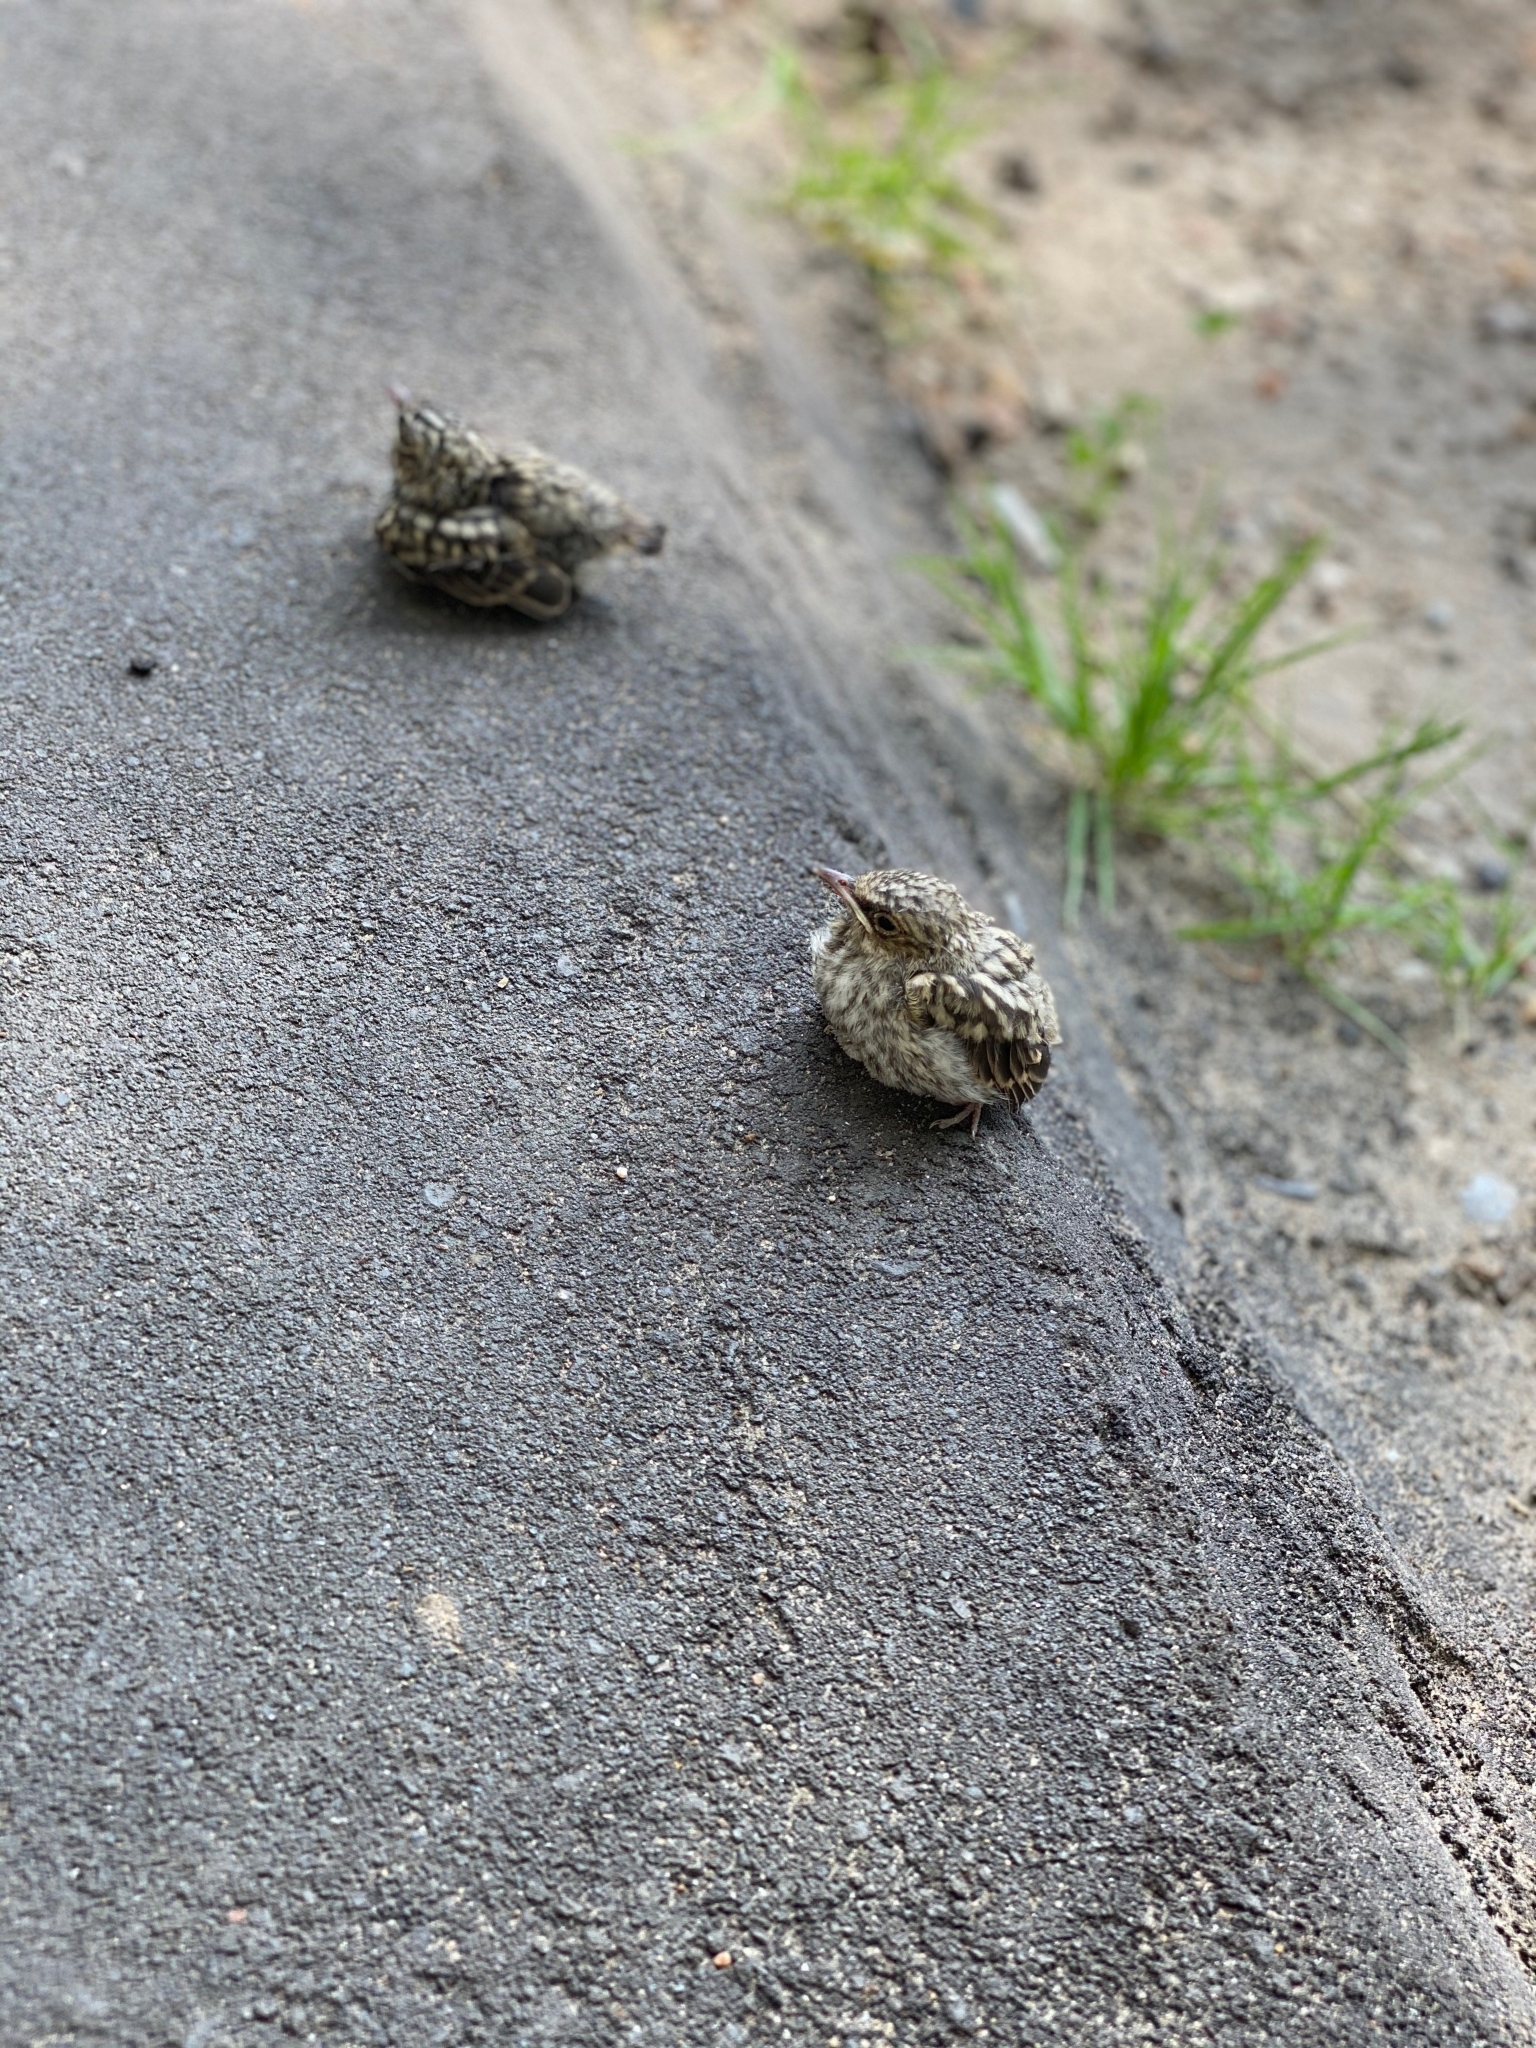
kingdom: Animalia
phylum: Chordata
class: Aves
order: Passeriformes
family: Muscicapidae
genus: Muscicapa
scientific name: Muscicapa striata
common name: Spotted flycatcher
